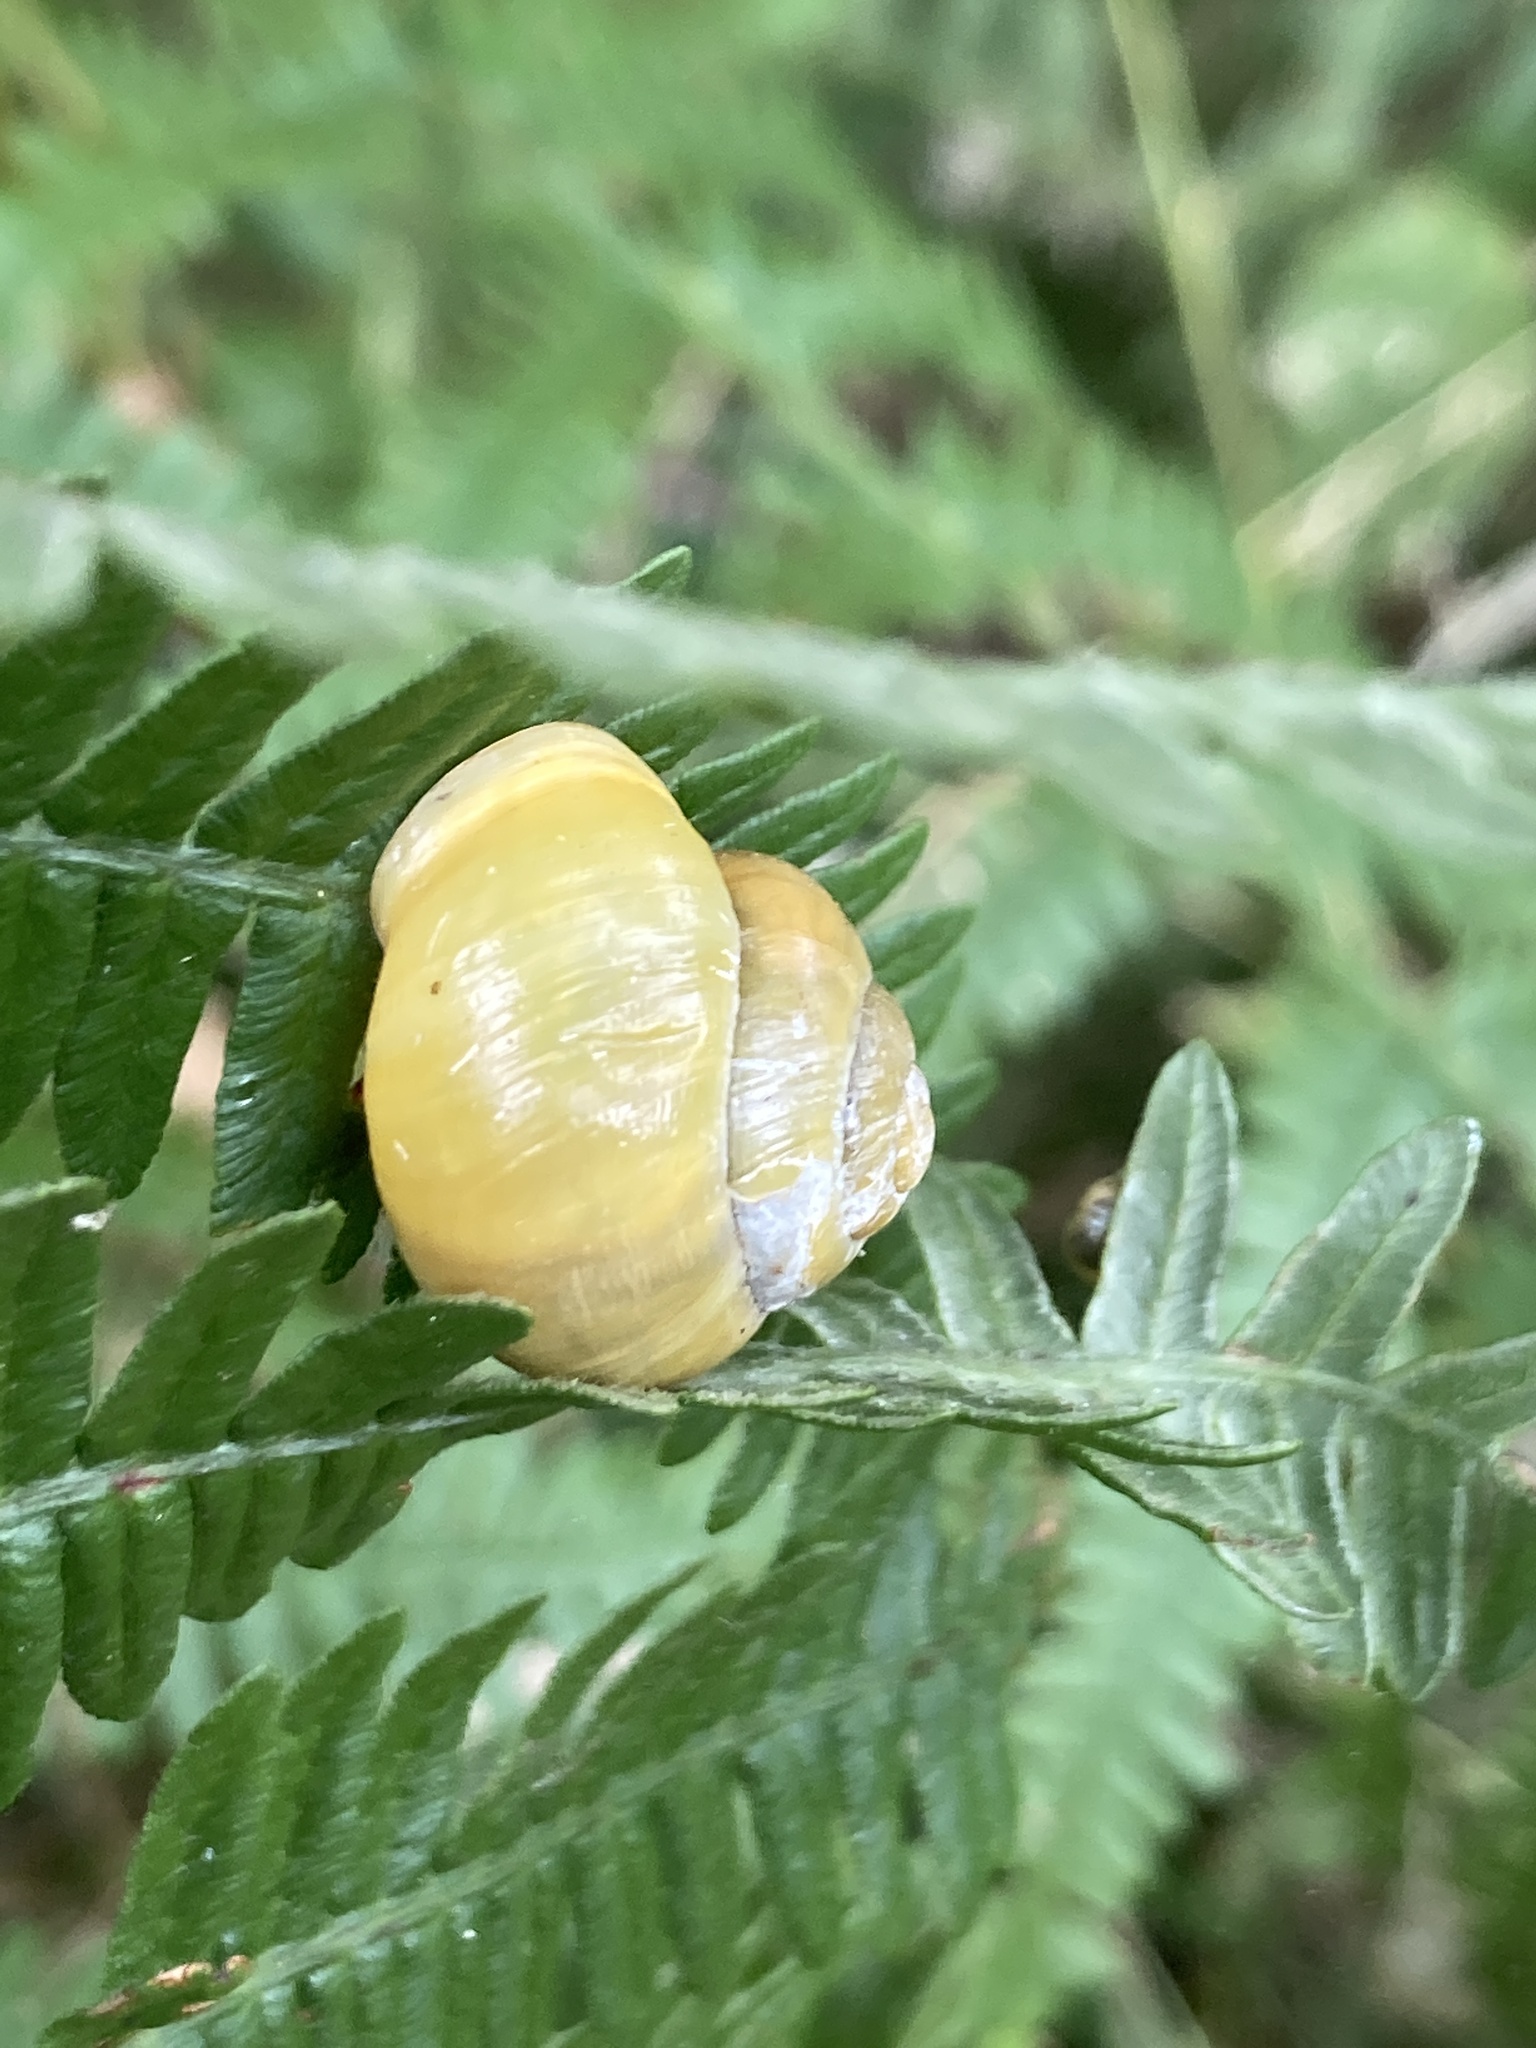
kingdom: Animalia
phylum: Mollusca
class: Gastropoda
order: Stylommatophora
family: Helicidae
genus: Cepaea
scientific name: Cepaea hortensis
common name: White-lip gardensnail
